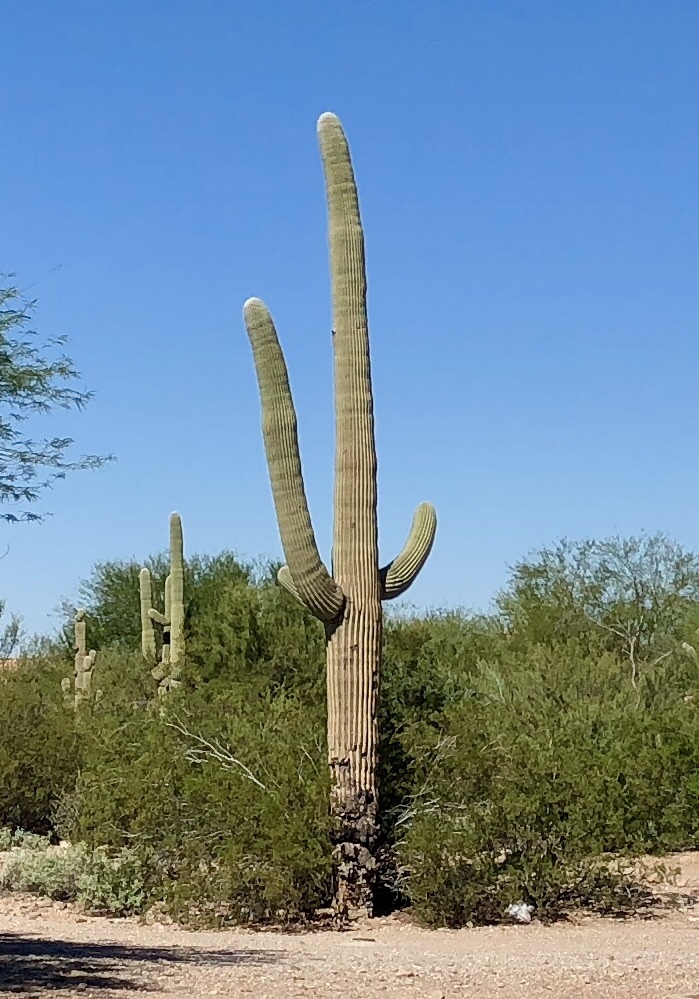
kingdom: Plantae
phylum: Tracheophyta
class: Magnoliopsida
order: Caryophyllales
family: Cactaceae
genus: Carnegiea
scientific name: Carnegiea gigantea
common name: Saguaro
